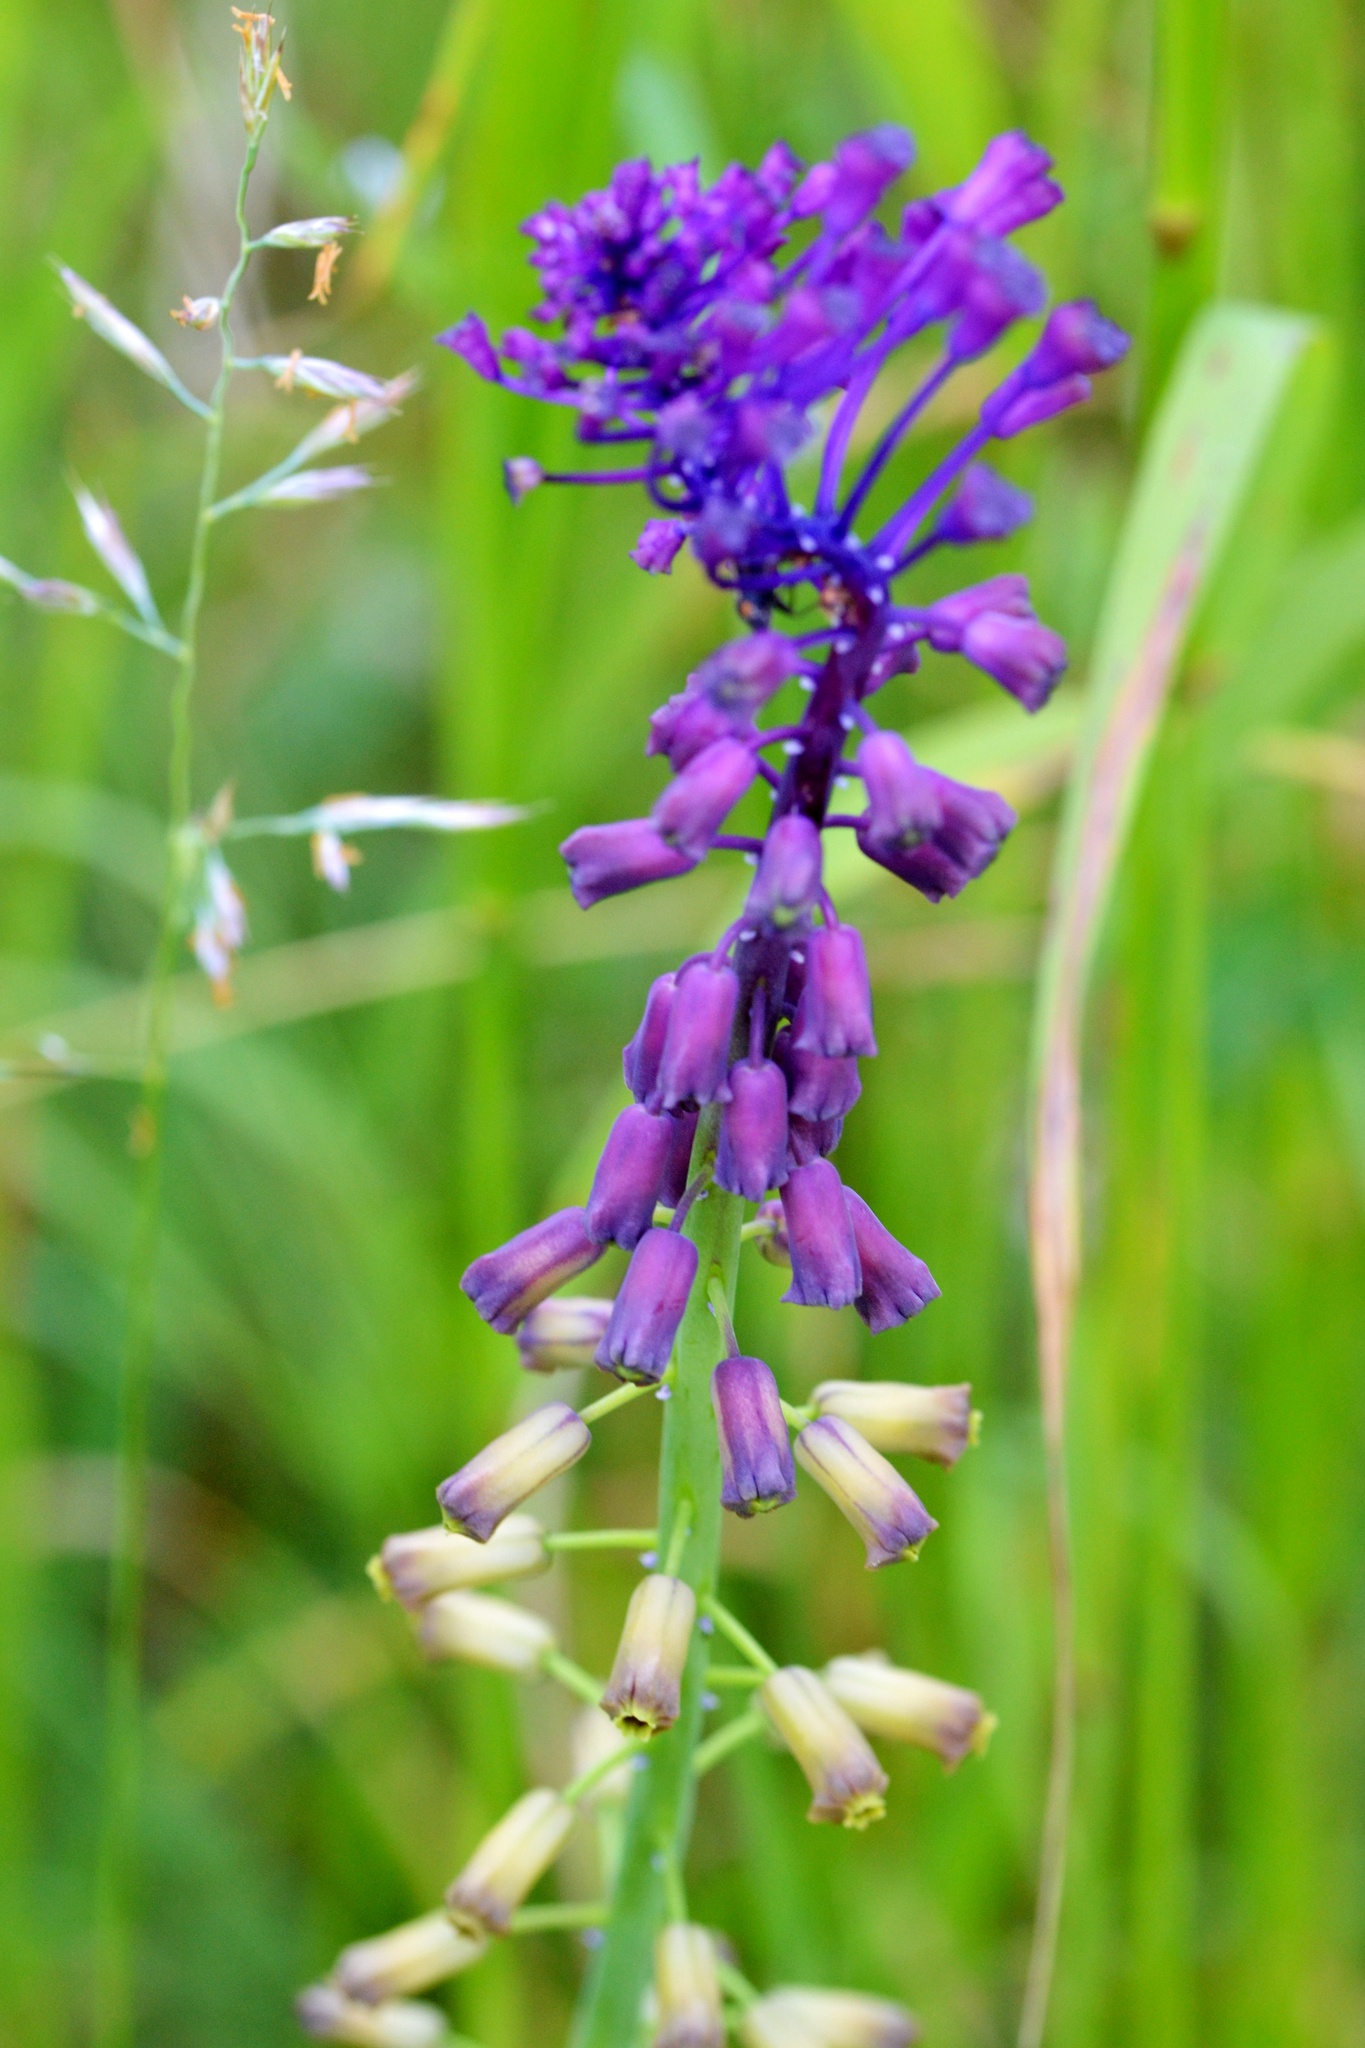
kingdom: Plantae
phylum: Tracheophyta
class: Liliopsida
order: Asparagales
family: Asparagaceae
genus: Muscari
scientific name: Muscari comosum
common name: Tassel hyacinth
